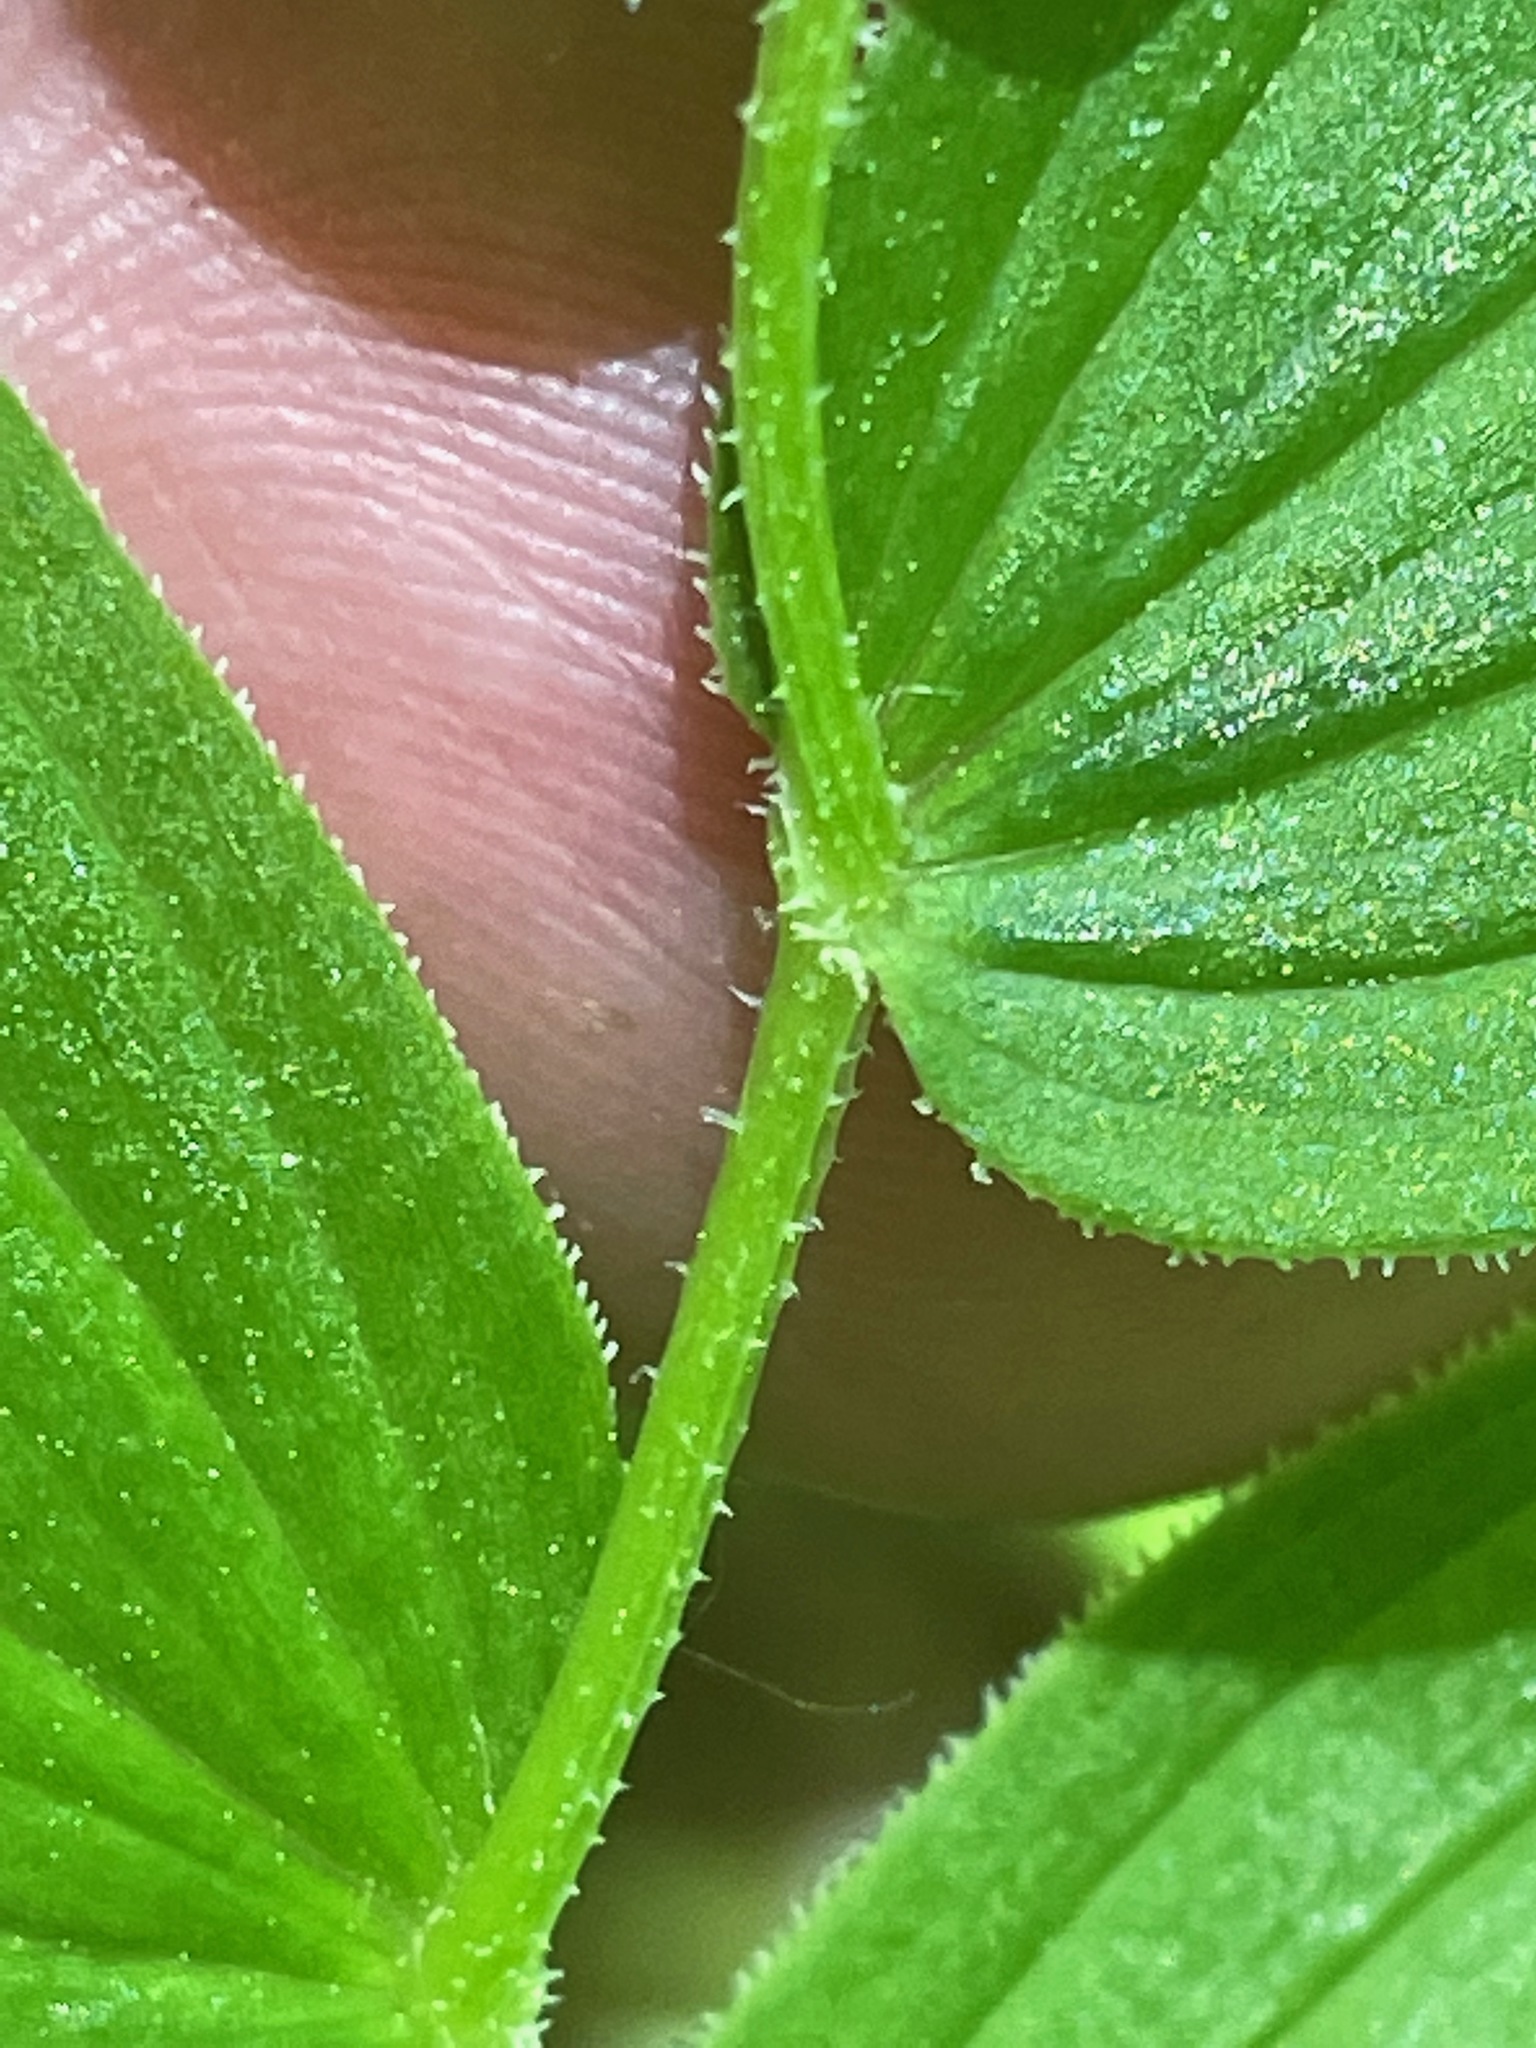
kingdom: Plantae
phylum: Tracheophyta
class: Liliopsida
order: Liliales
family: Liliaceae
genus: Streptopus
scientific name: Streptopus lanceolatus
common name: Rose mandarin
